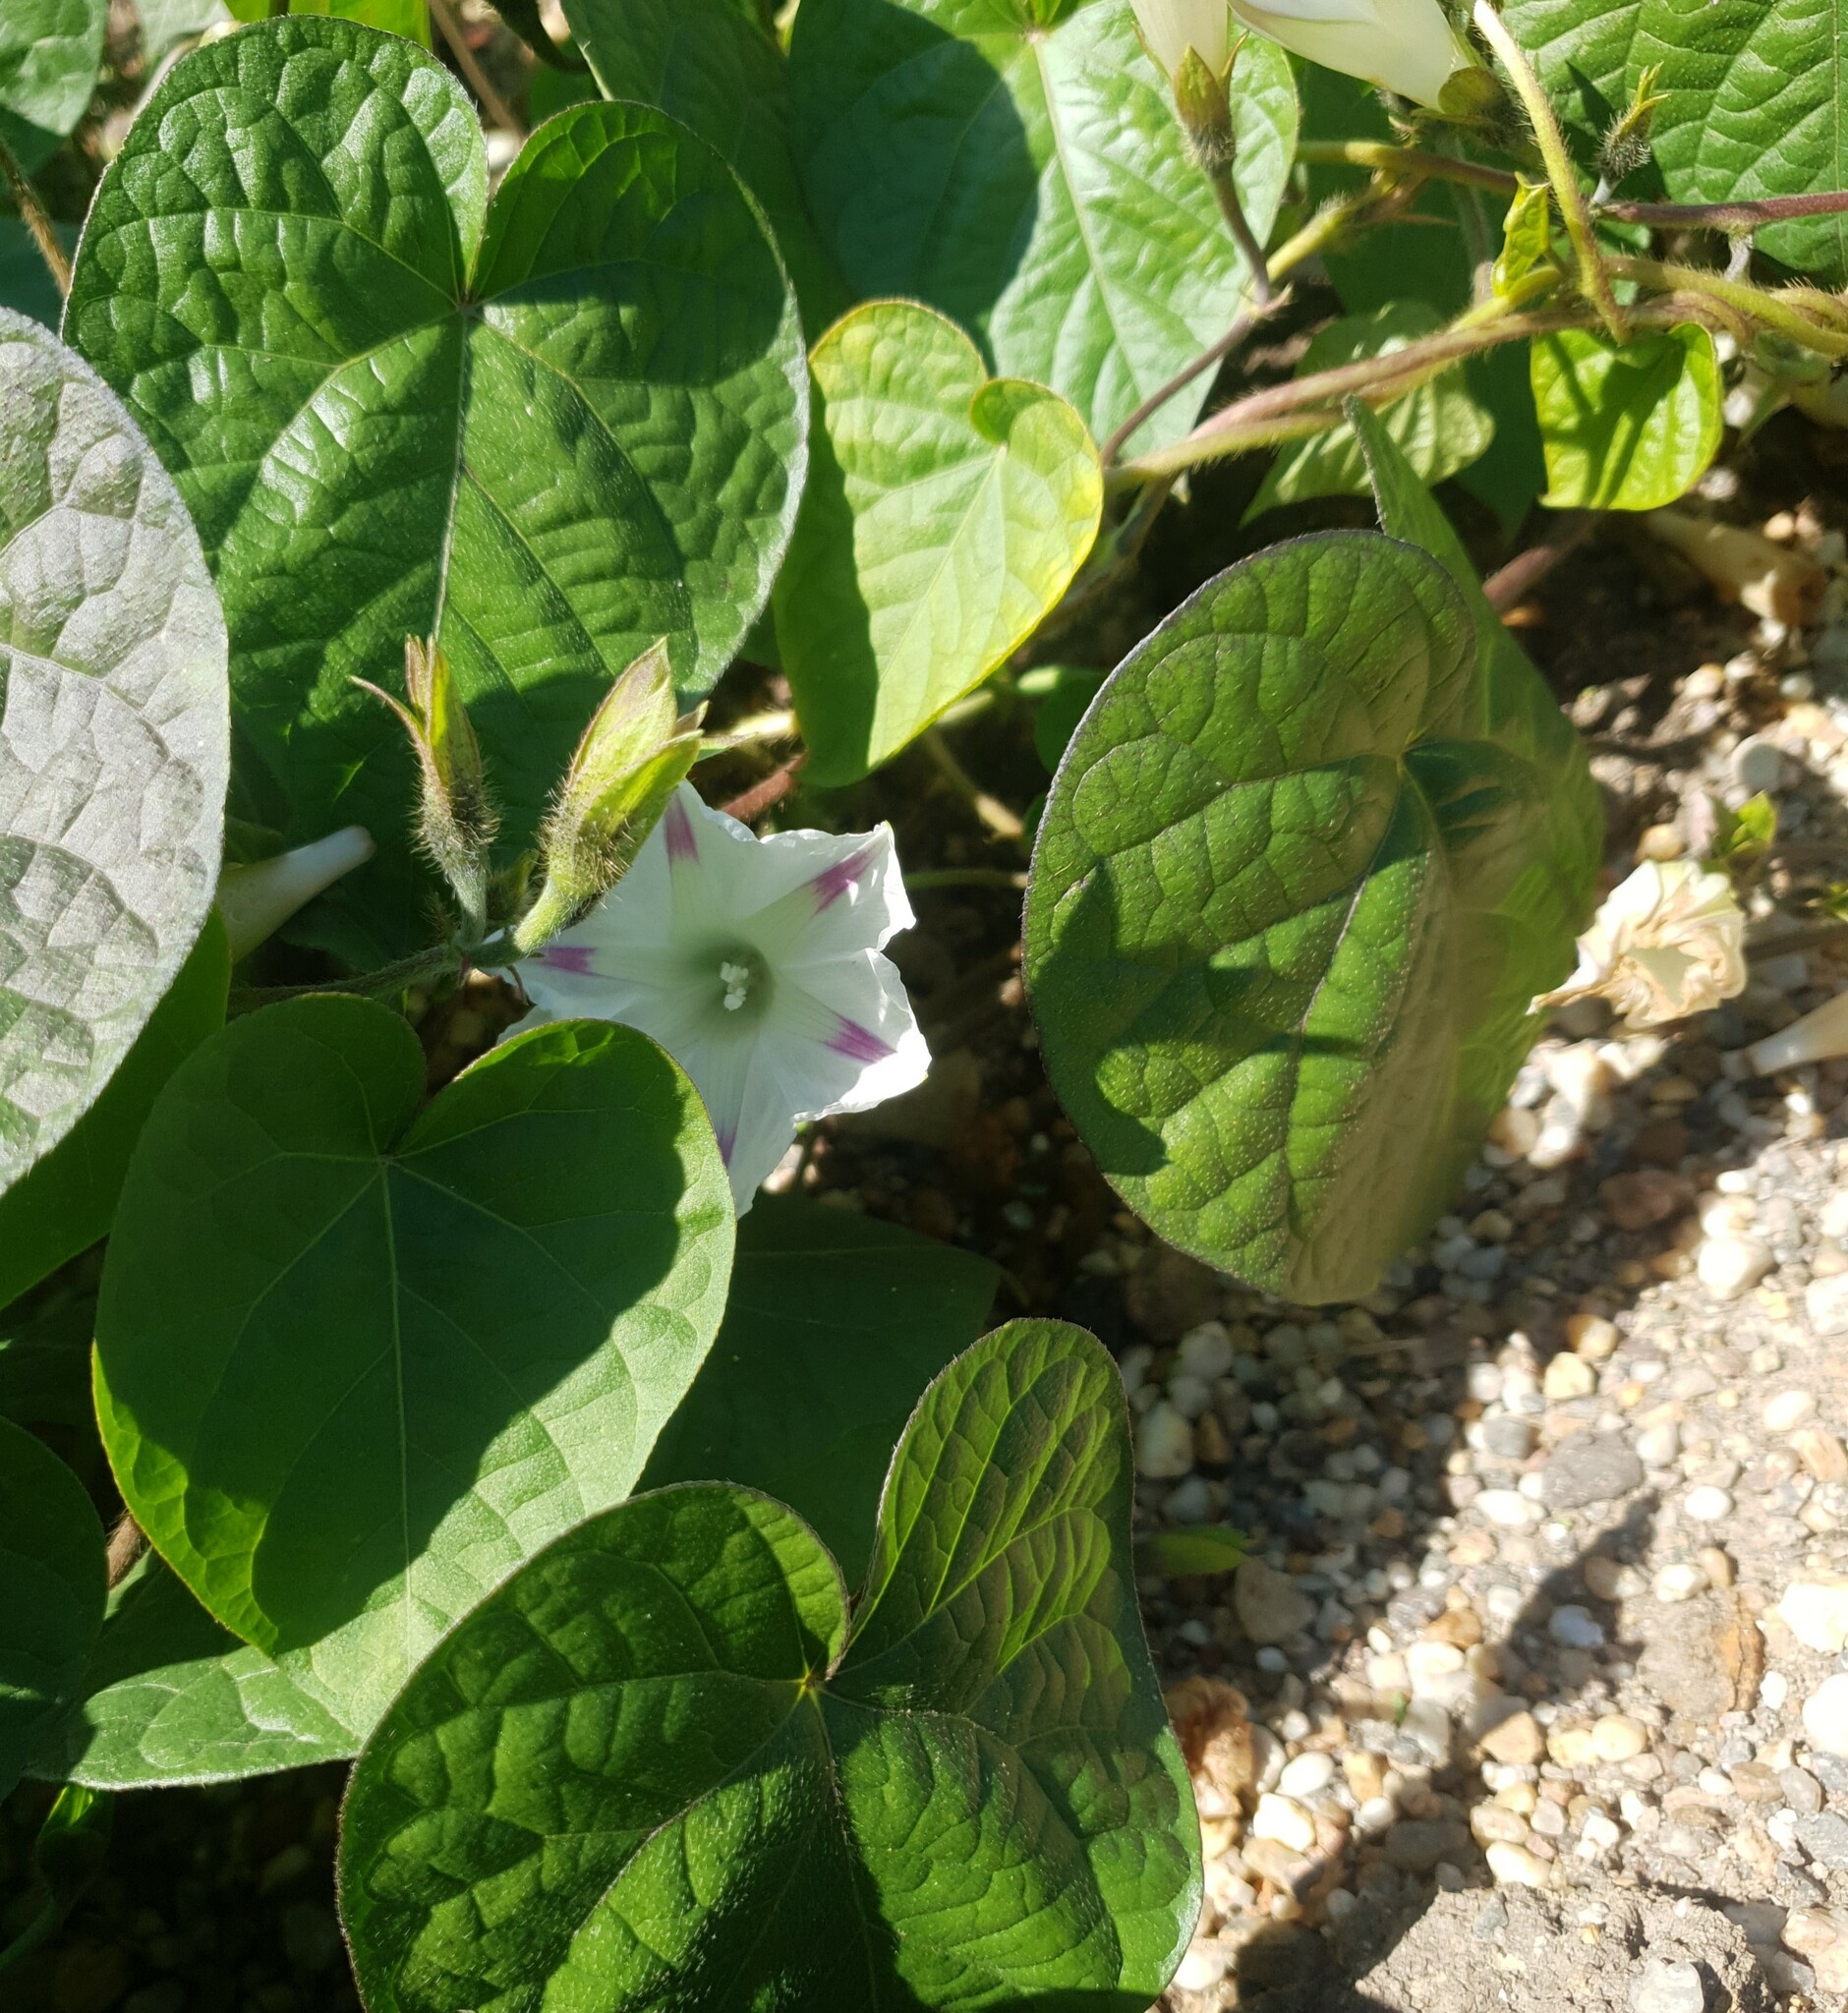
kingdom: Plantae
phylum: Tracheophyta
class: Magnoliopsida
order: Solanales
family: Convolvulaceae
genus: Ipomoea
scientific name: Ipomoea purpurea
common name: Common morning-glory
